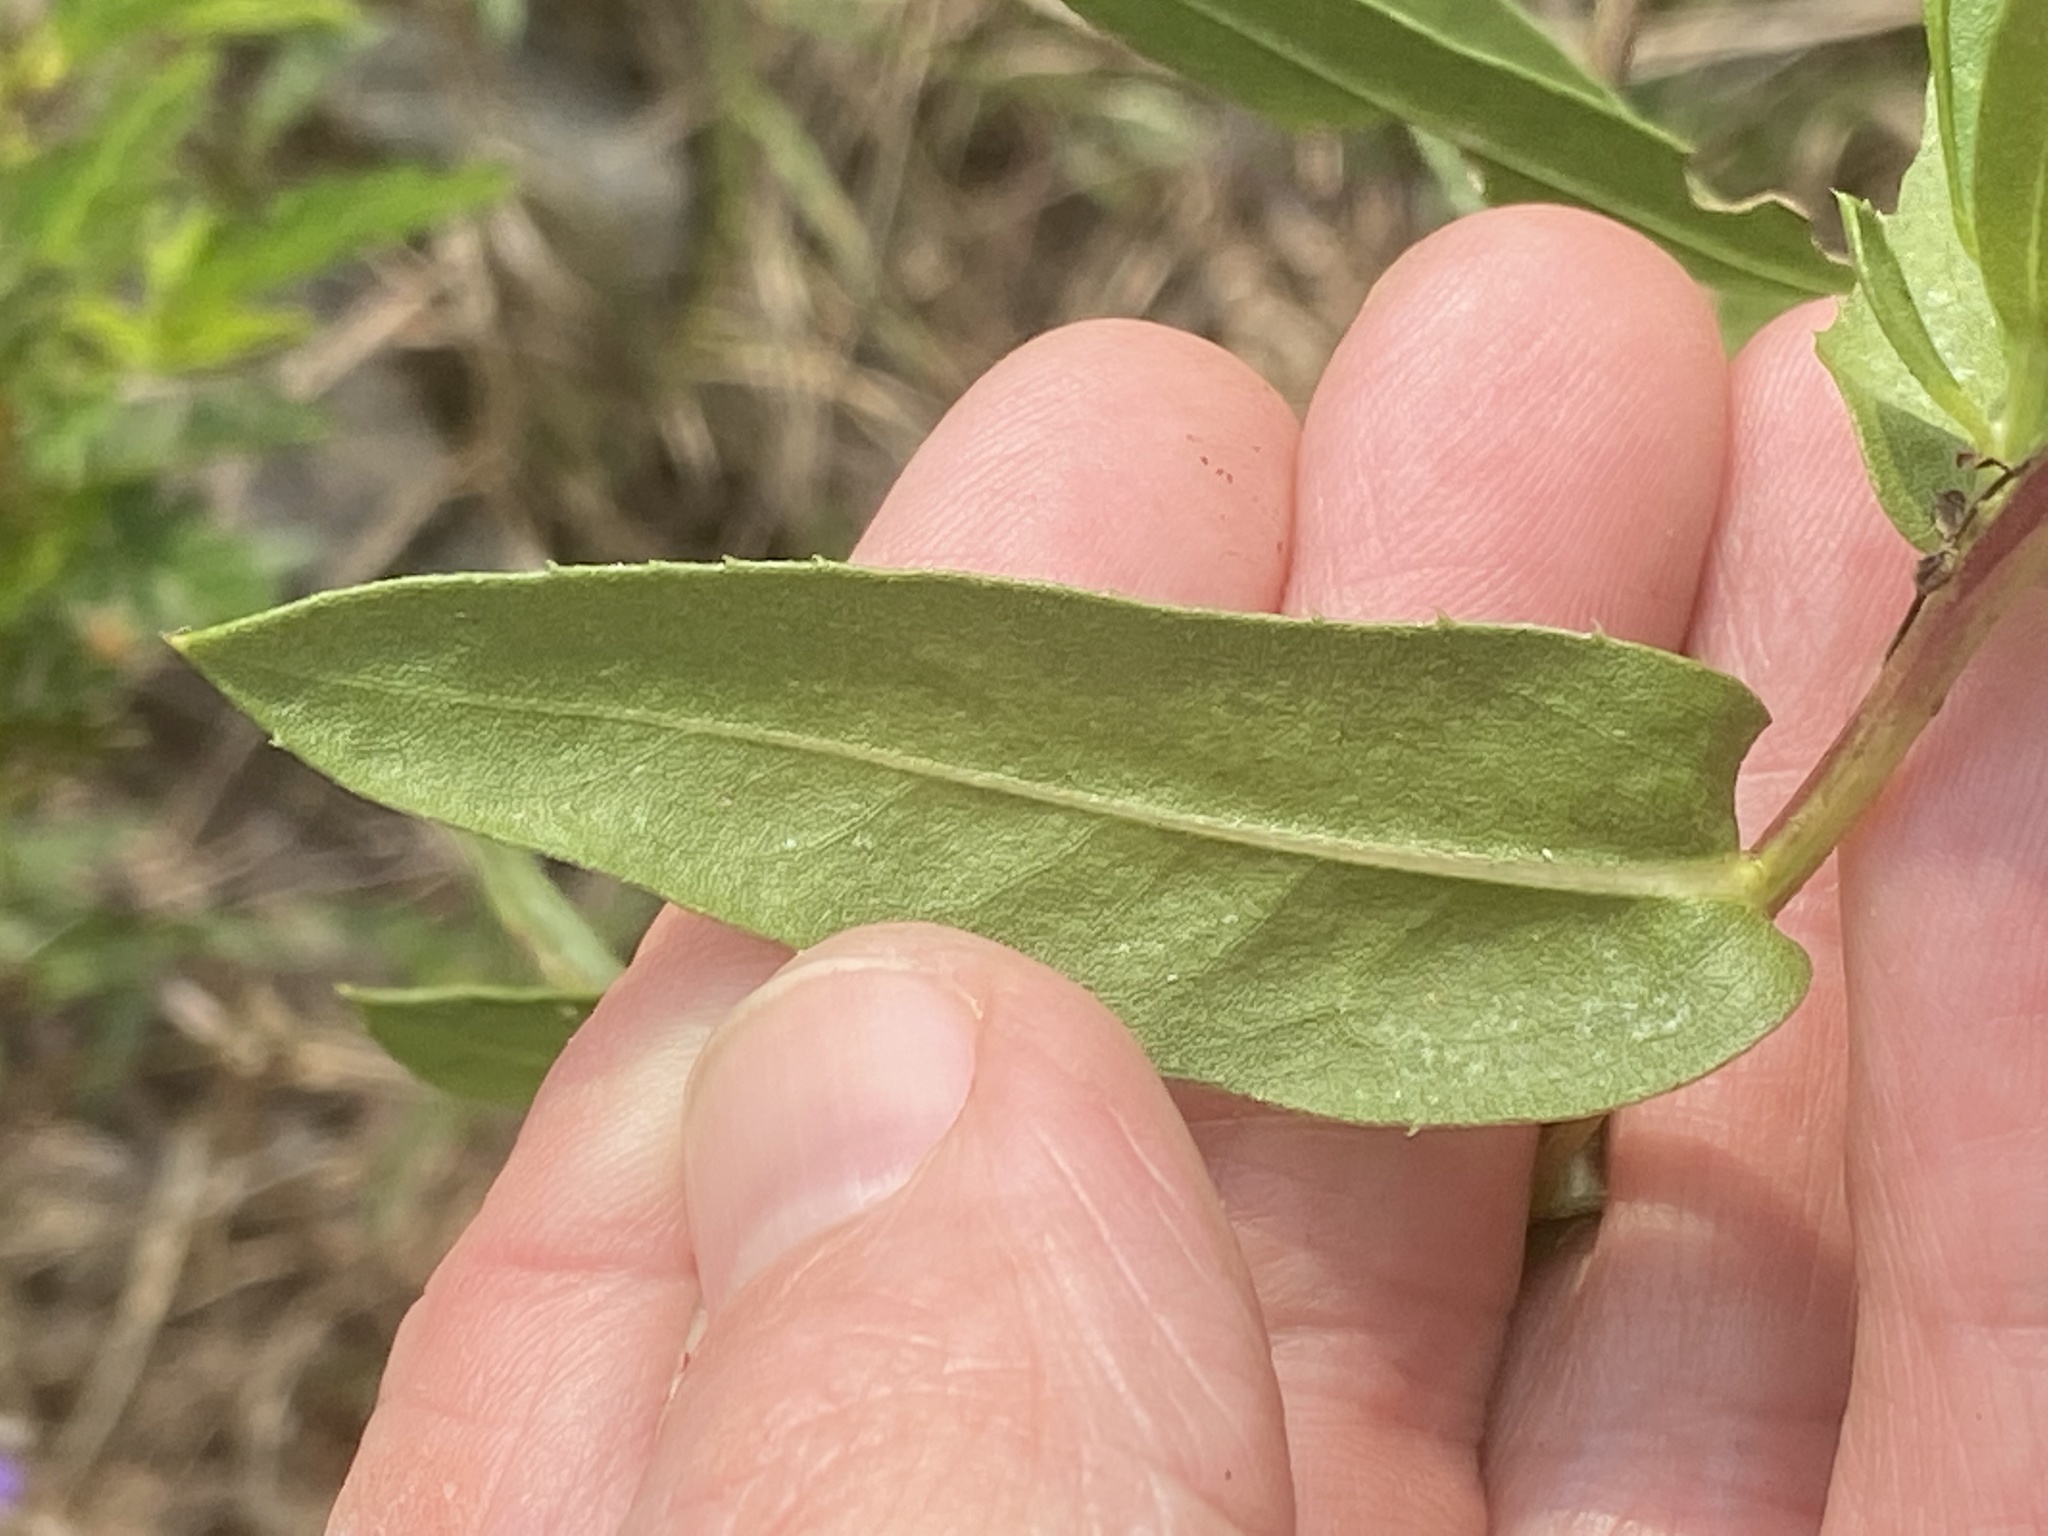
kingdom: Plantae
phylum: Tracheophyta
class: Magnoliopsida
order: Asterales
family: Asteraceae
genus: Grindelia
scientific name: Grindelia lanceolata
